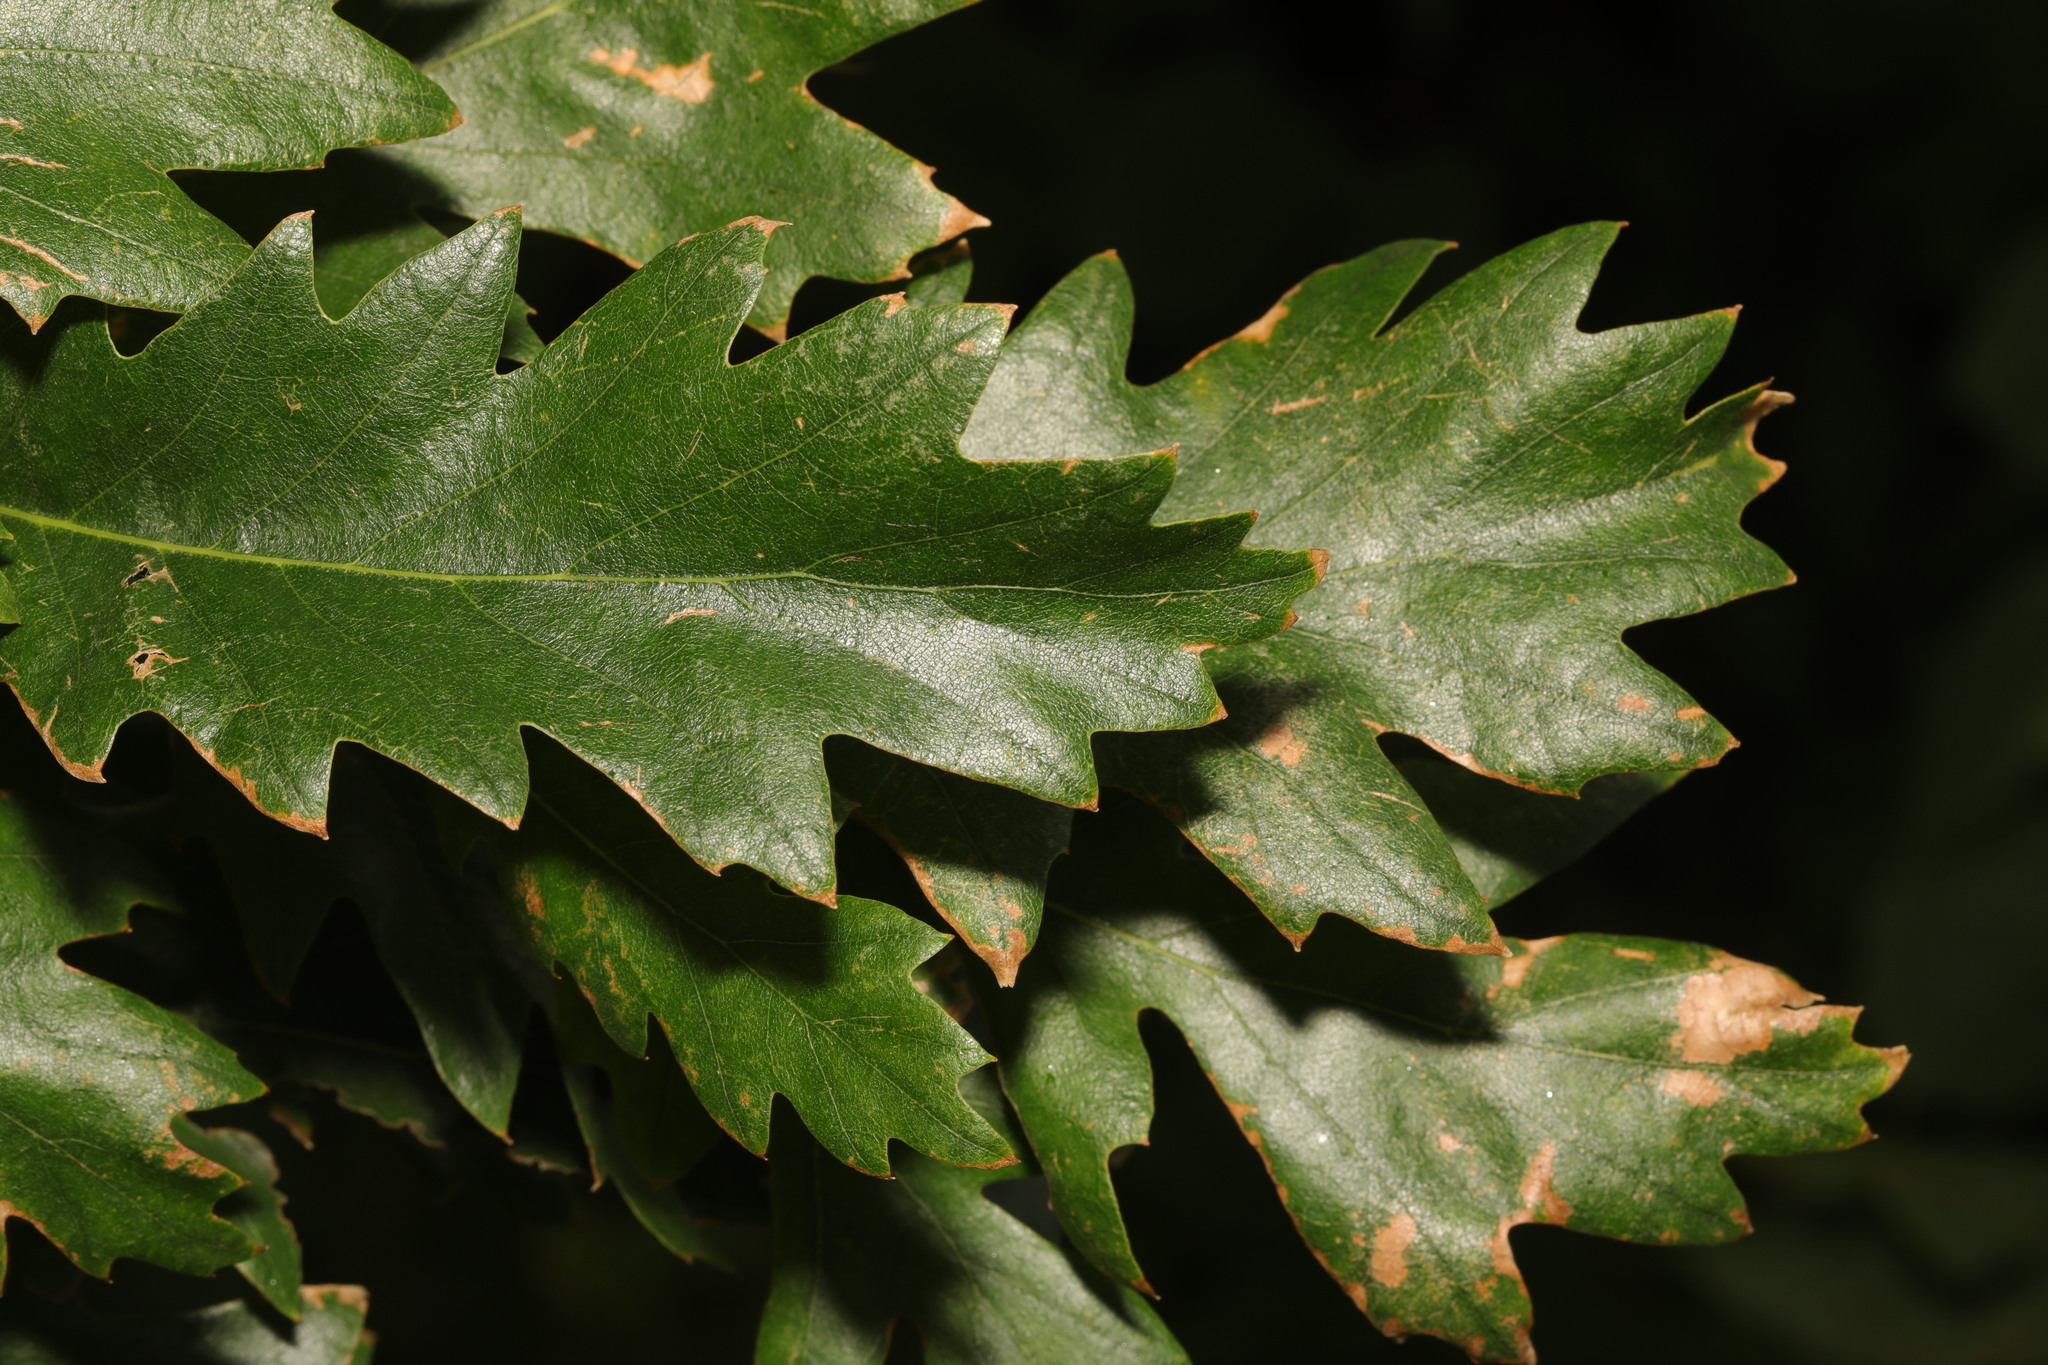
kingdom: Plantae
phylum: Tracheophyta
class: Magnoliopsida
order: Fagales
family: Fagaceae
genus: Quercus
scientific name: Quercus cerris
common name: Turkey oak
